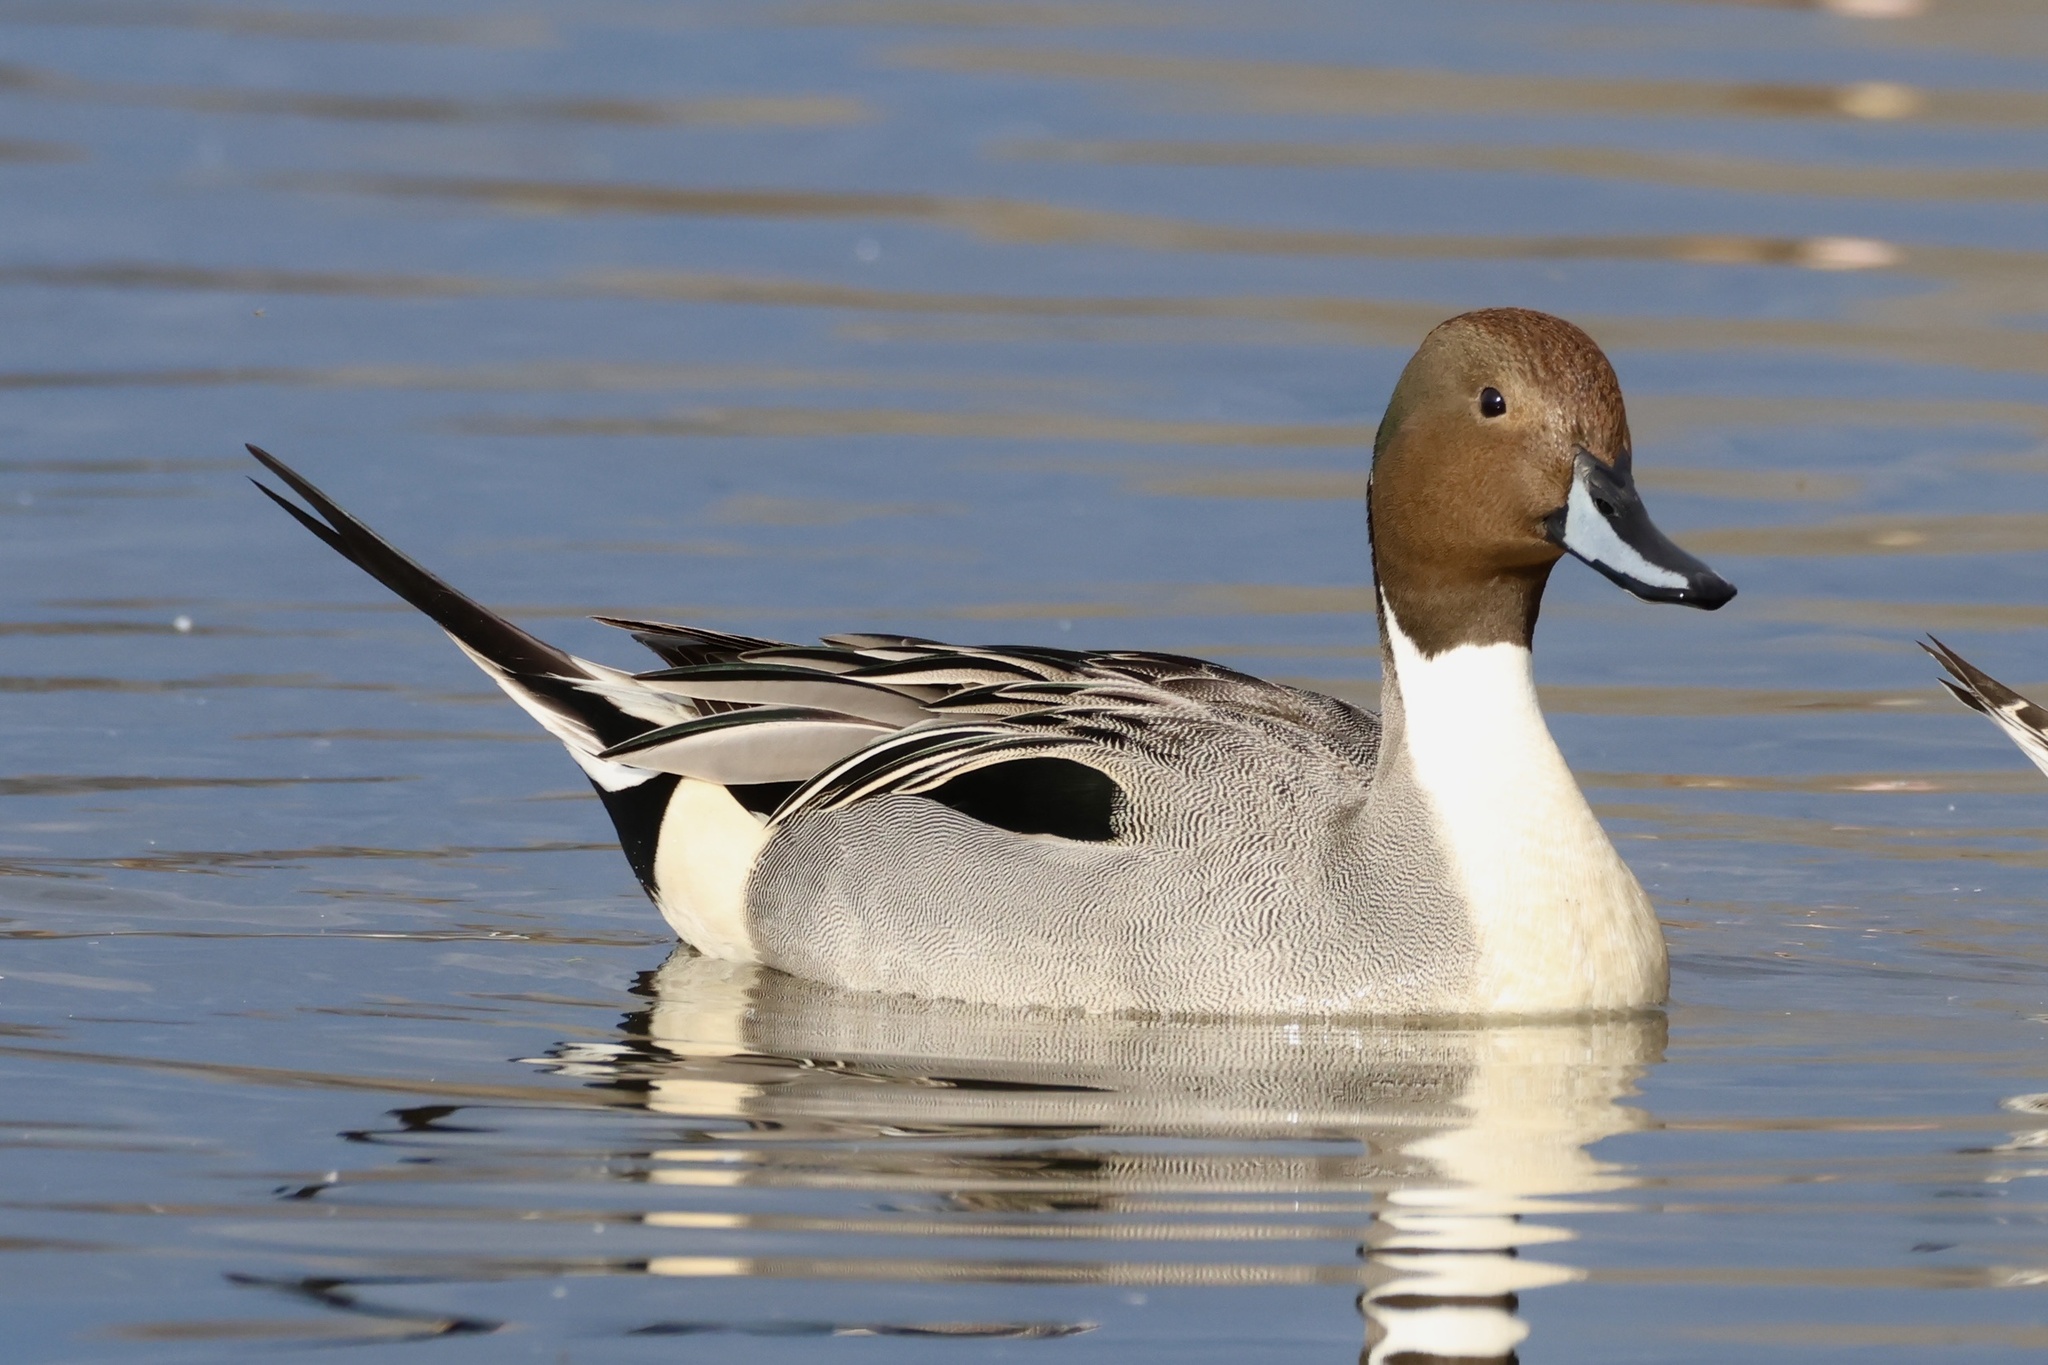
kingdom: Animalia
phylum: Chordata
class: Aves
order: Anseriformes
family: Anatidae
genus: Anas
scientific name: Anas acuta
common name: Northern pintail
